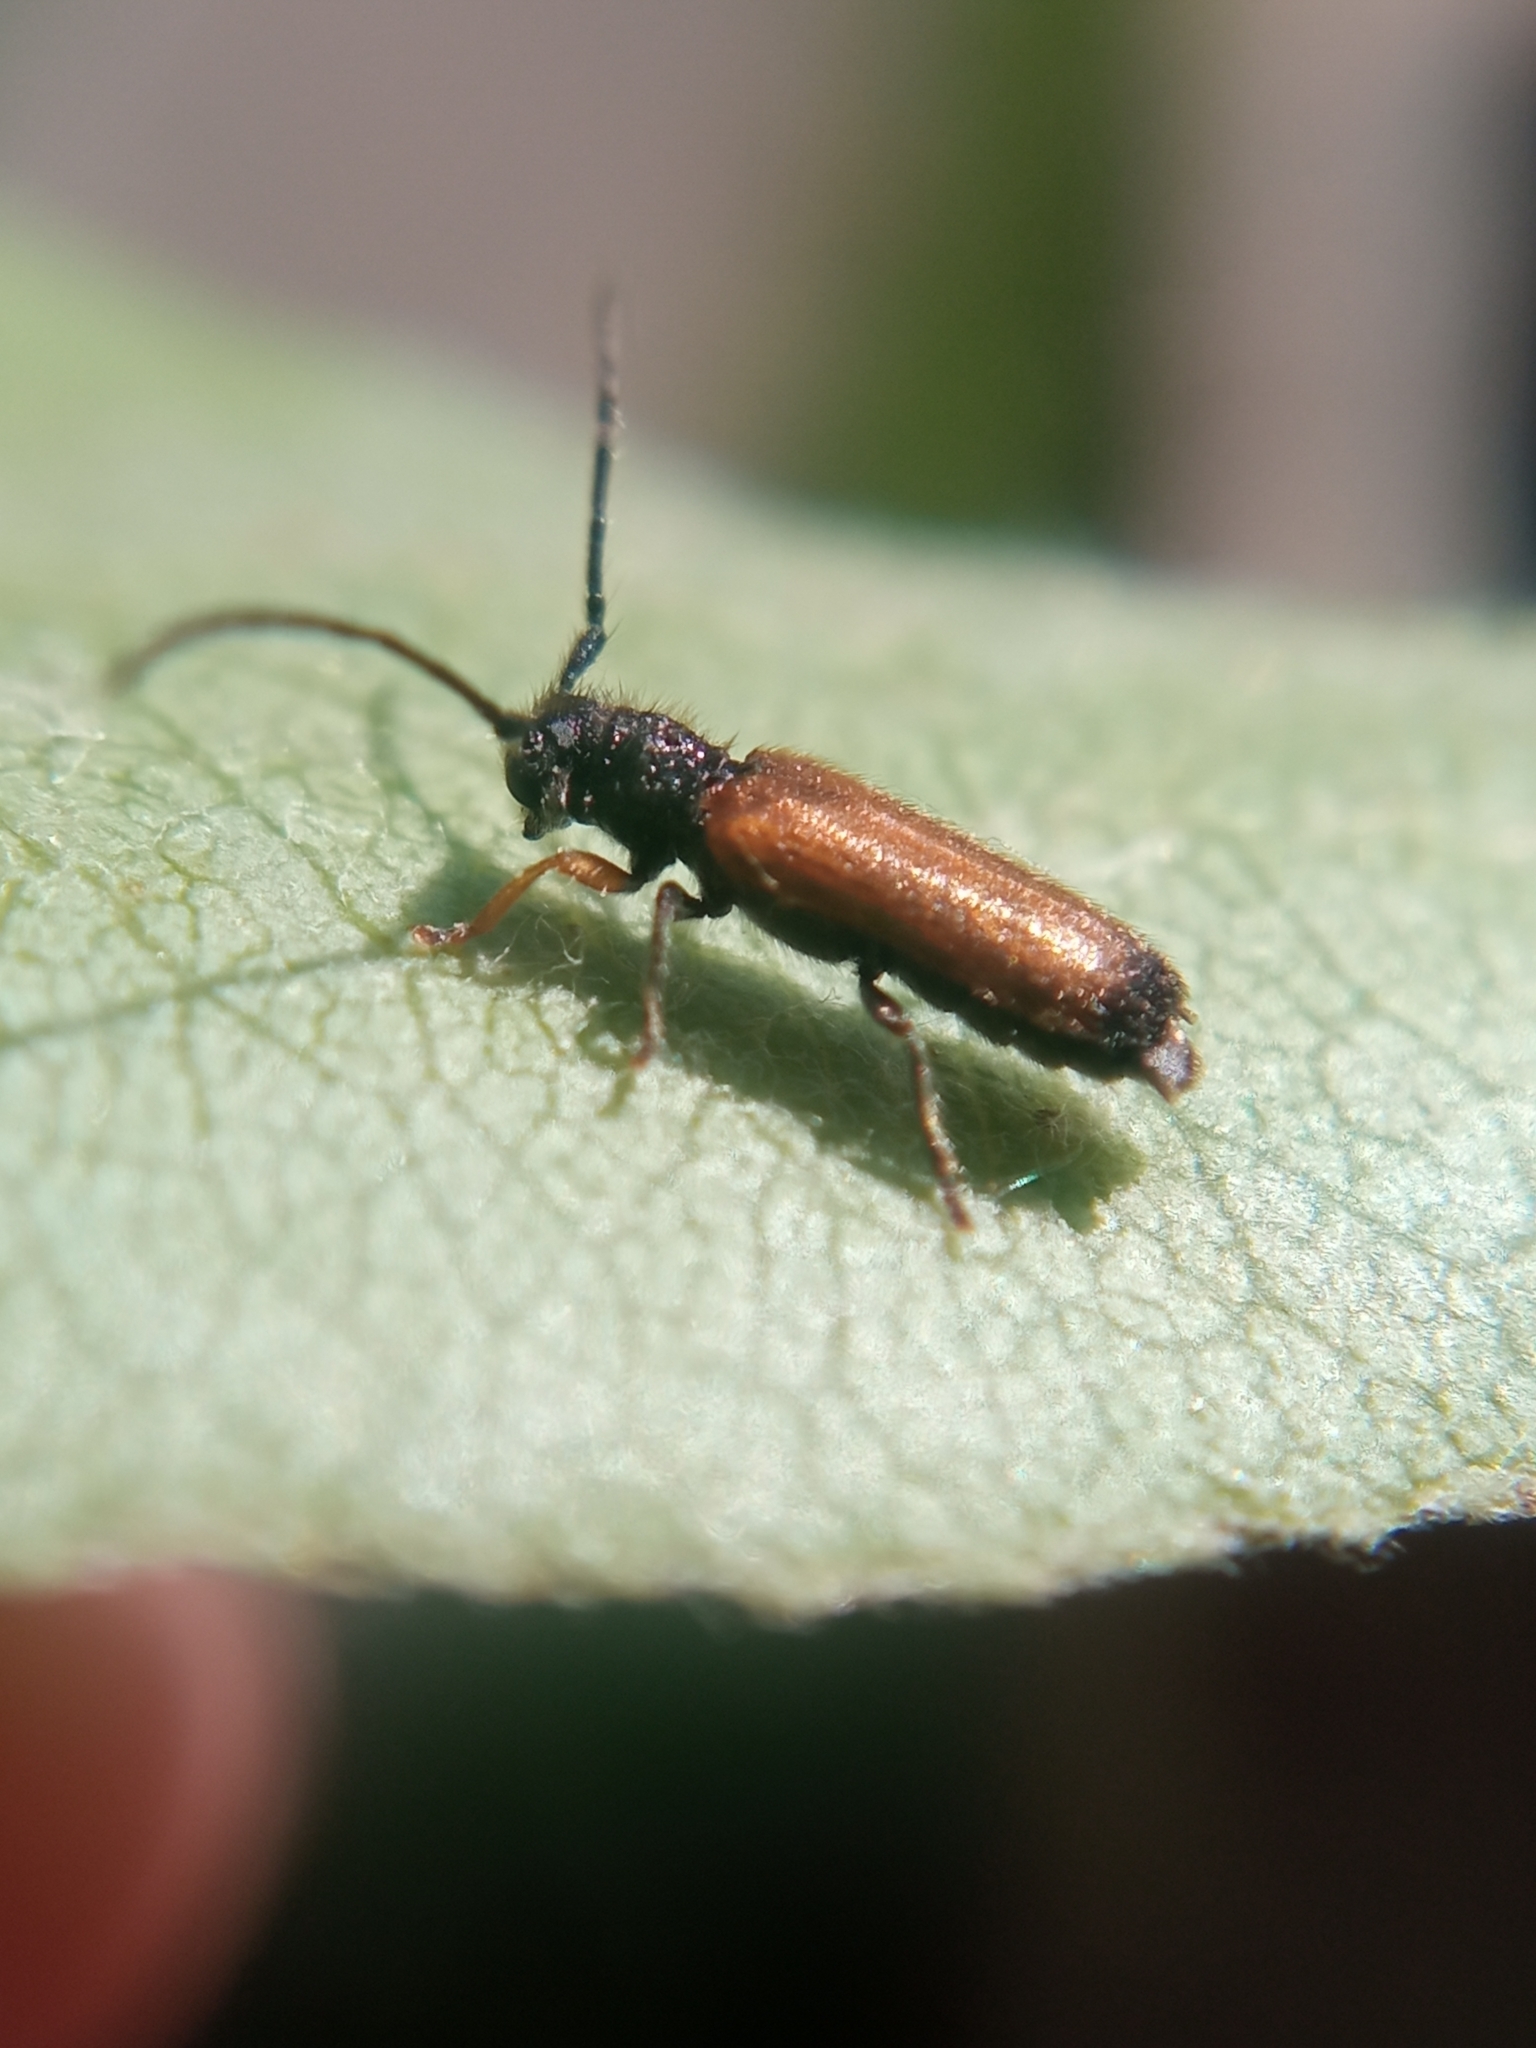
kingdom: Animalia
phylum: Arthropoda
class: Insecta
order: Coleoptera
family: Cerambycidae
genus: Tetrops
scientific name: Tetrops praeustus
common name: Plum beetle
